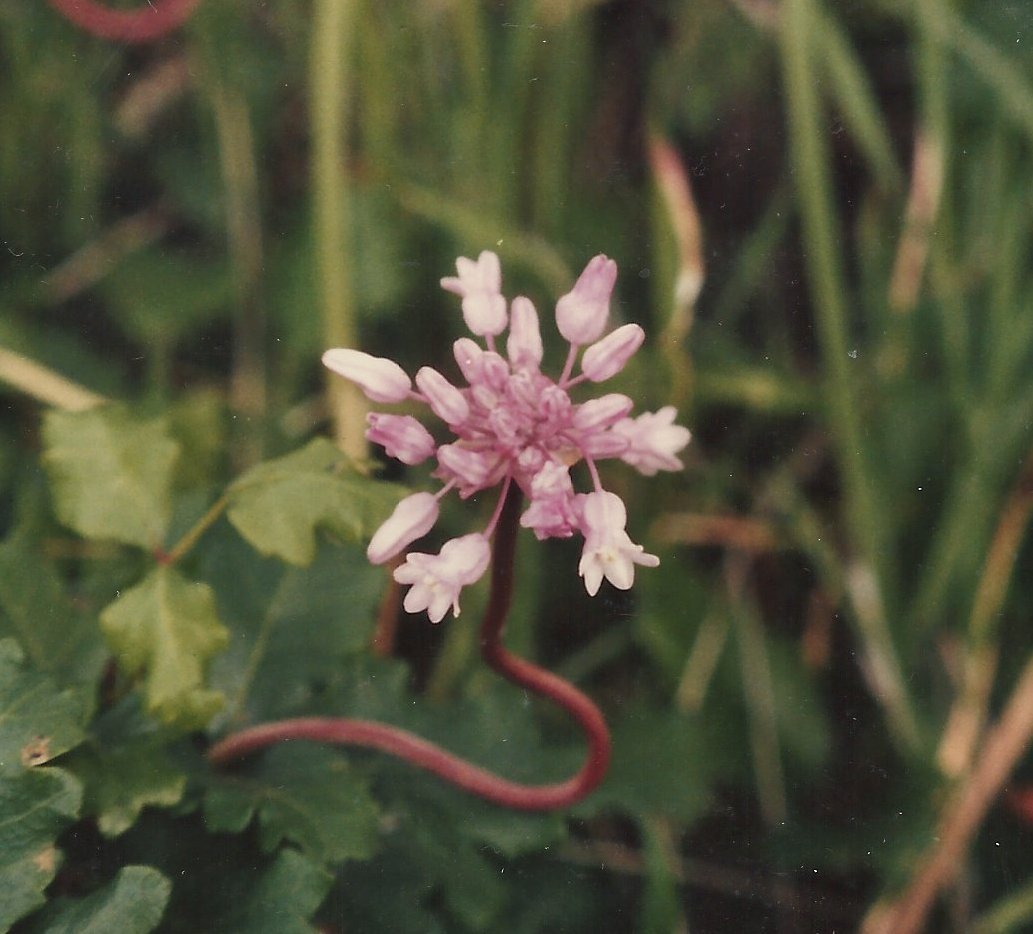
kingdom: Plantae
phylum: Tracheophyta
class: Liliopsida
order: Asparagales
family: Asparagaceae
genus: Dichelostemma
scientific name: Dichelostemma volubile
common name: Trining brodiaea
